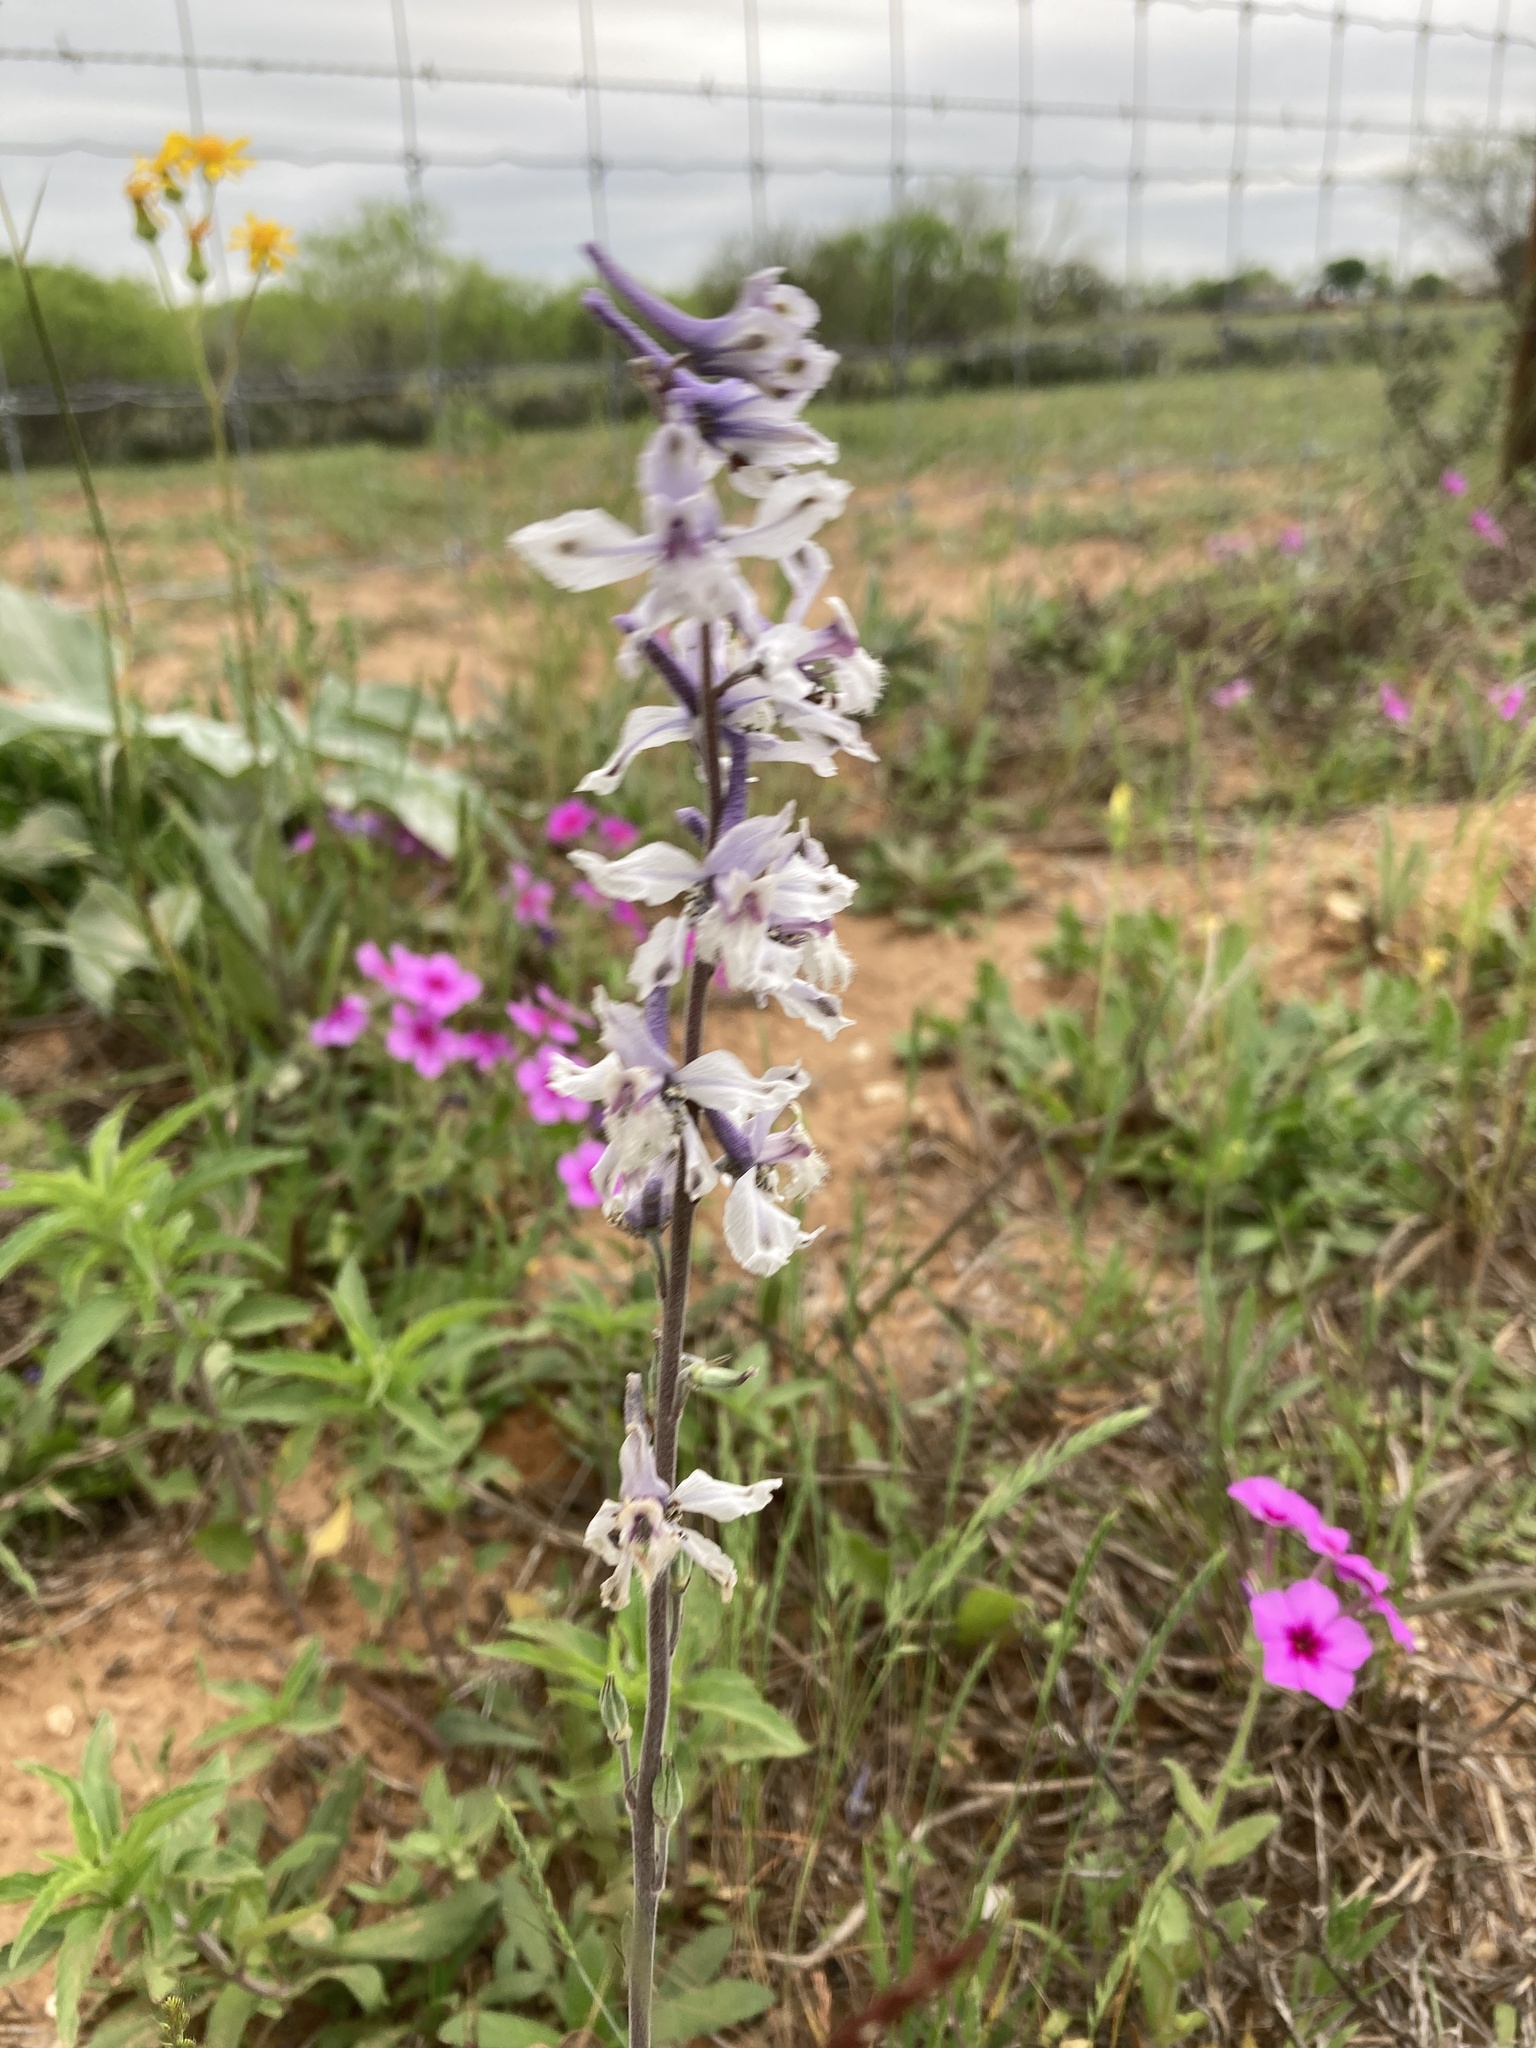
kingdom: Plantae
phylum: Tracheophyta
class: Magnoliopsida
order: Ranunculales
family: Ranunculaceae
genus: Delphinium
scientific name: Delphinium carolinianum
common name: Carolina larkspur
